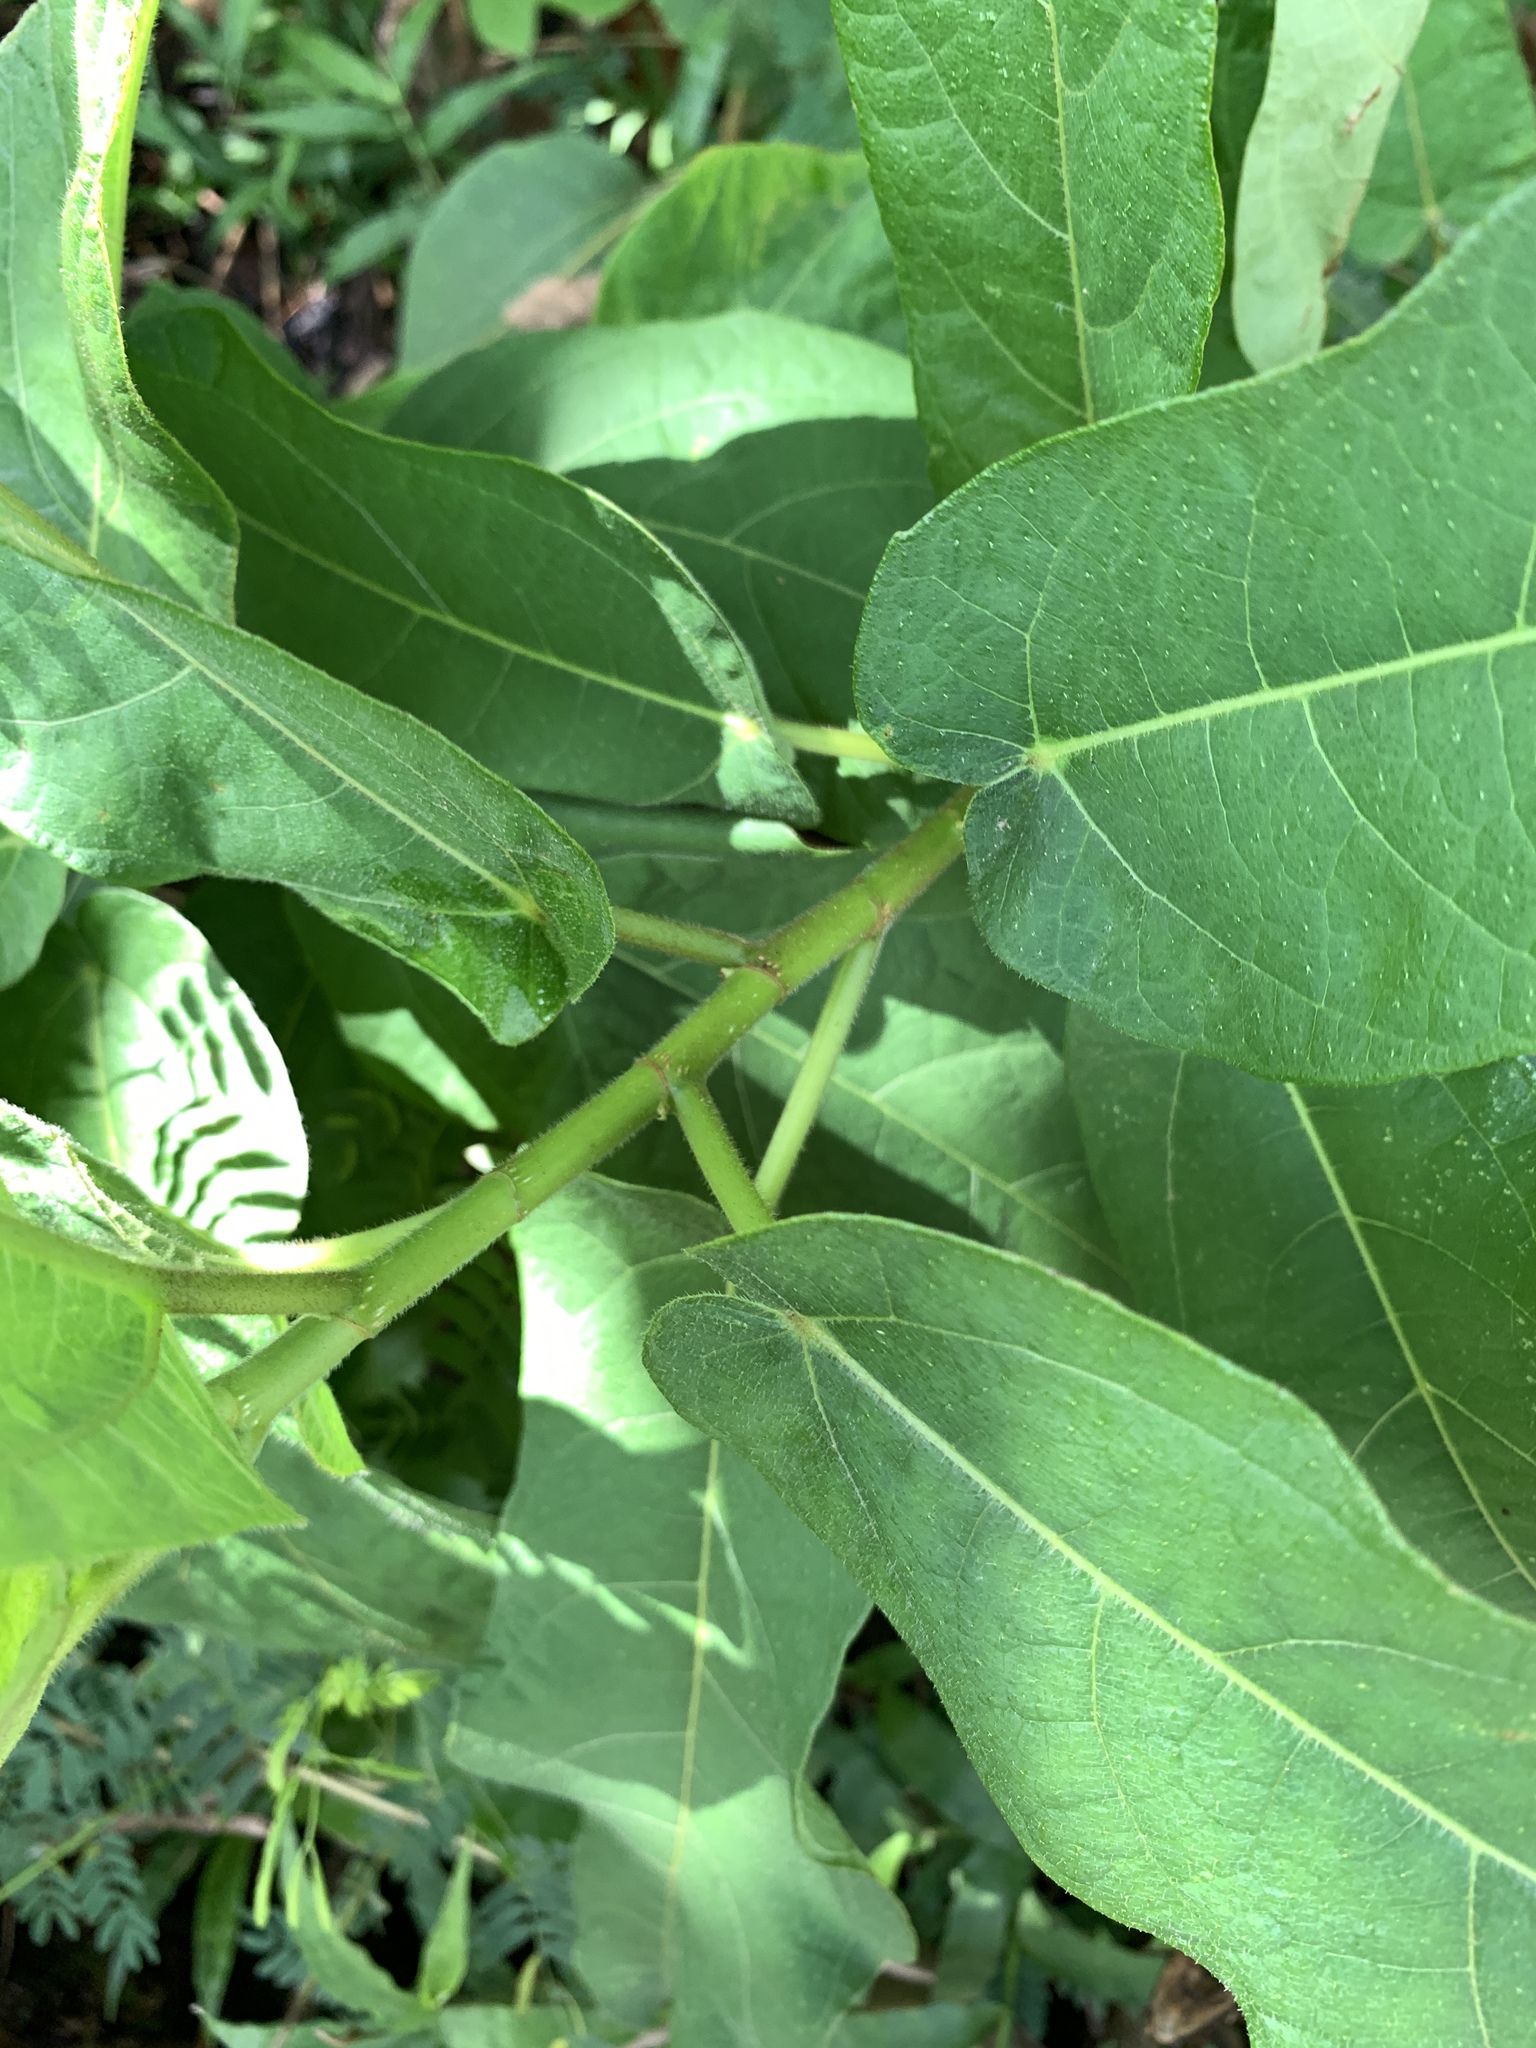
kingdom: Plantae
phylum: Tracheophyta
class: Magnoliopsida
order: Rosales
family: Moraceae
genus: Ficus
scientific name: Ficus erecta
